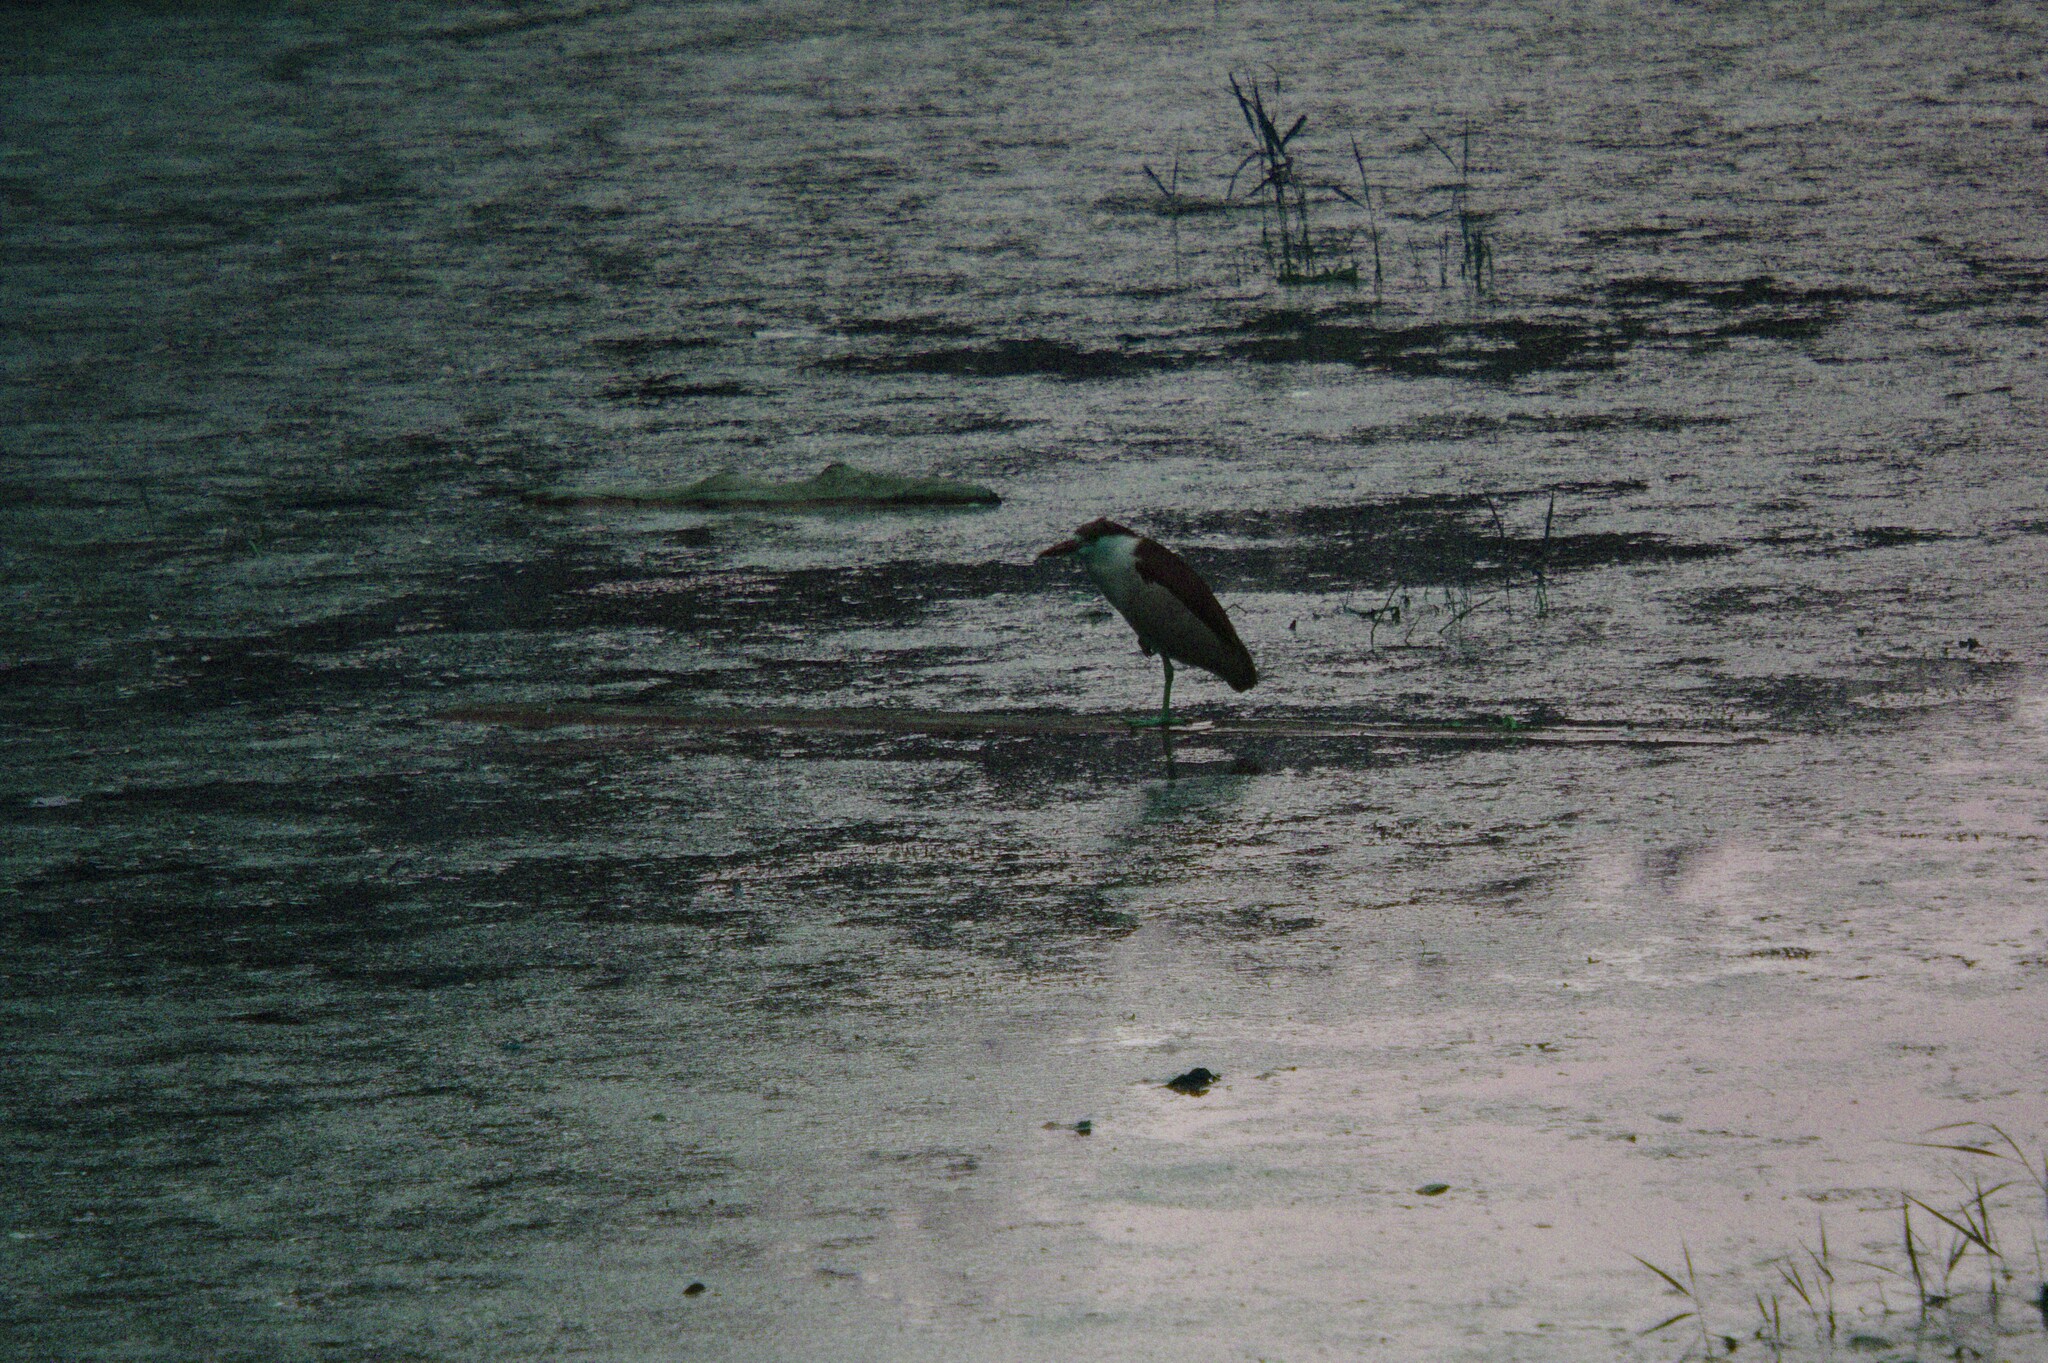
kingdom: Animalia
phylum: Chordata
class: Aves
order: Pelecaniformes
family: Ardeidae
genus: Nycticorax
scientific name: Nycticorax nycticorax
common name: Black-crowned night heron
